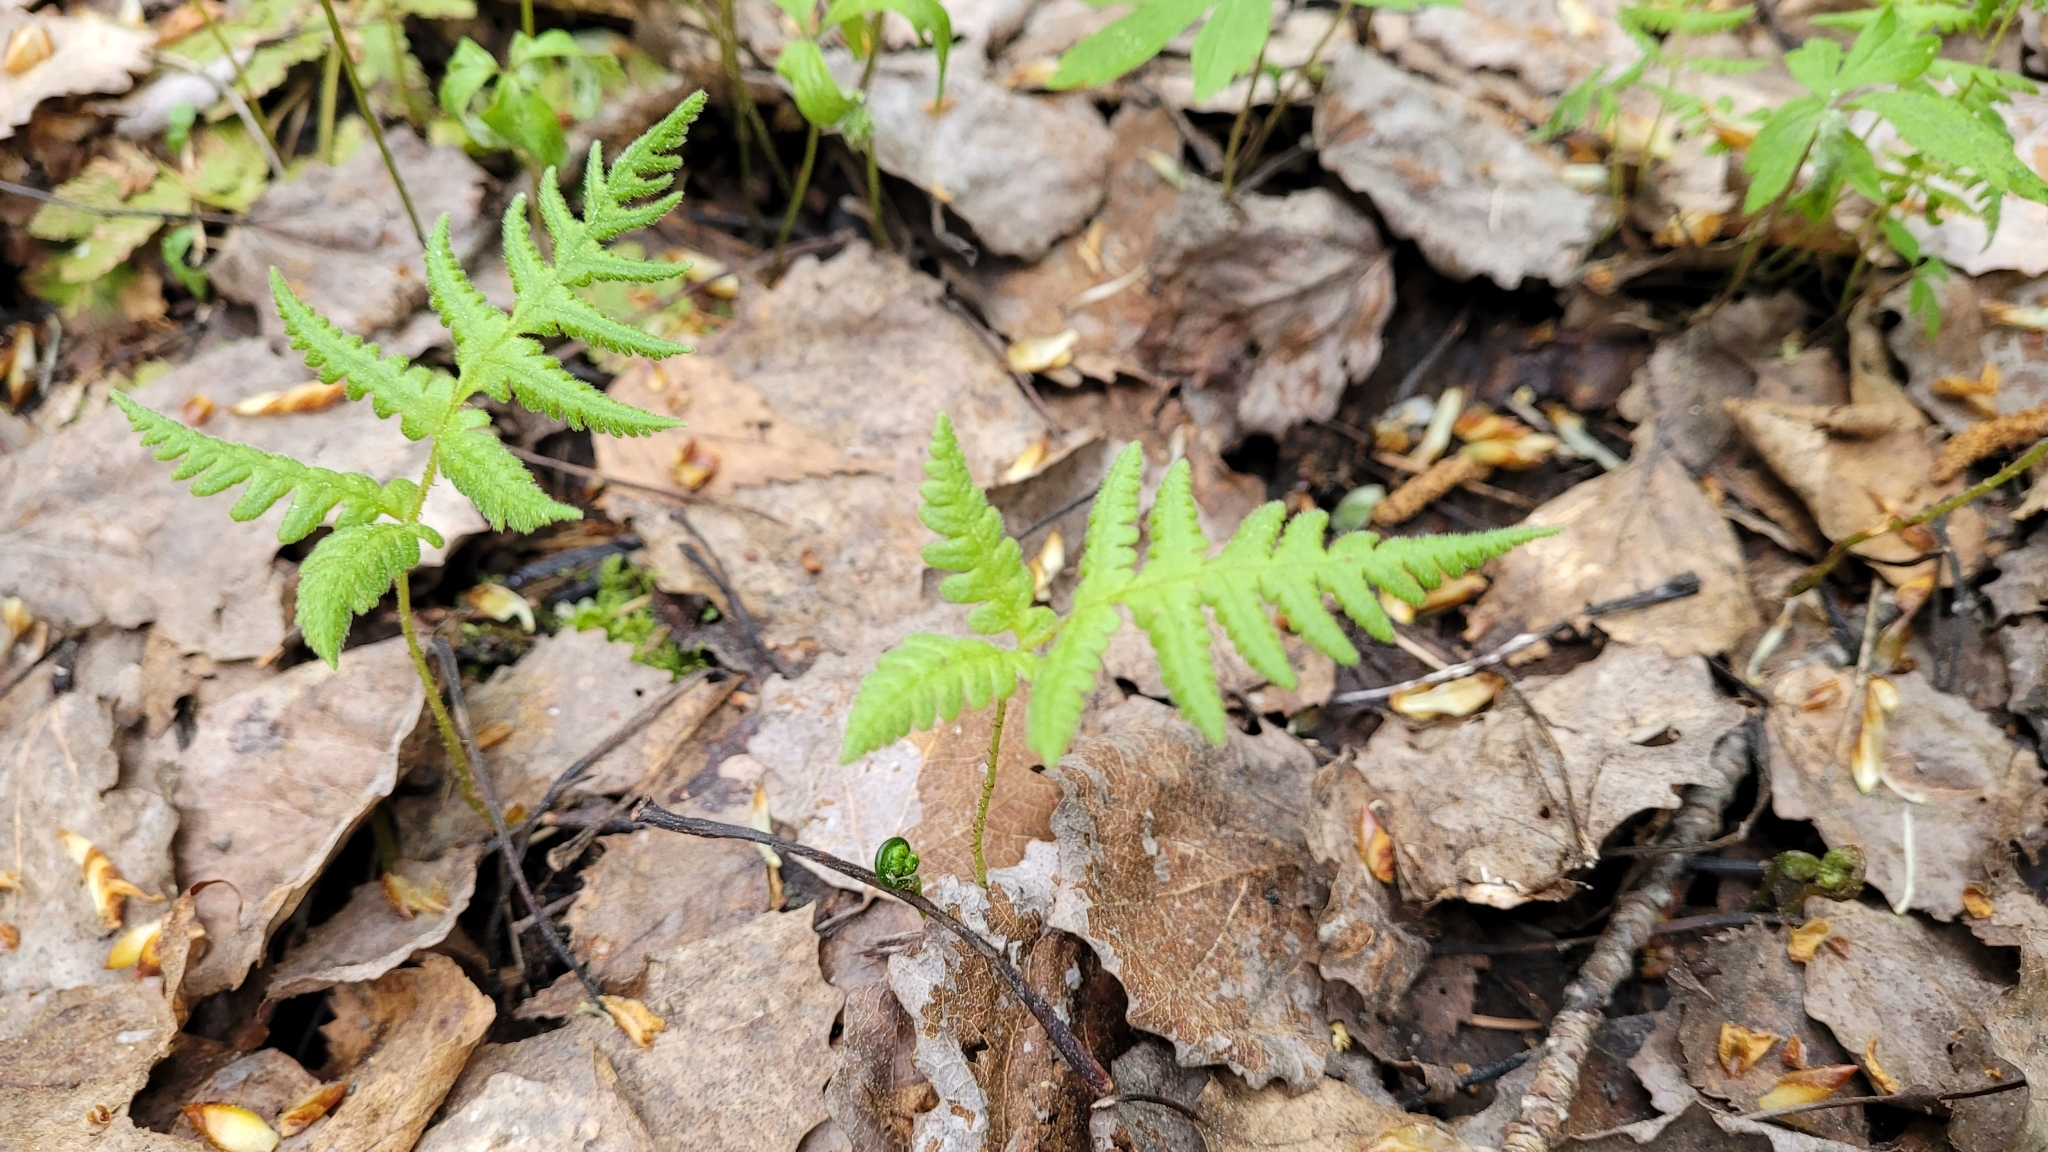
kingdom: Plantae
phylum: Tracheophyta
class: Polypodiopsida
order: Polypodiales
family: Thelypteridaceae
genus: Phegopteris
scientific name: Phegopteris connectilis
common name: Beech fern
